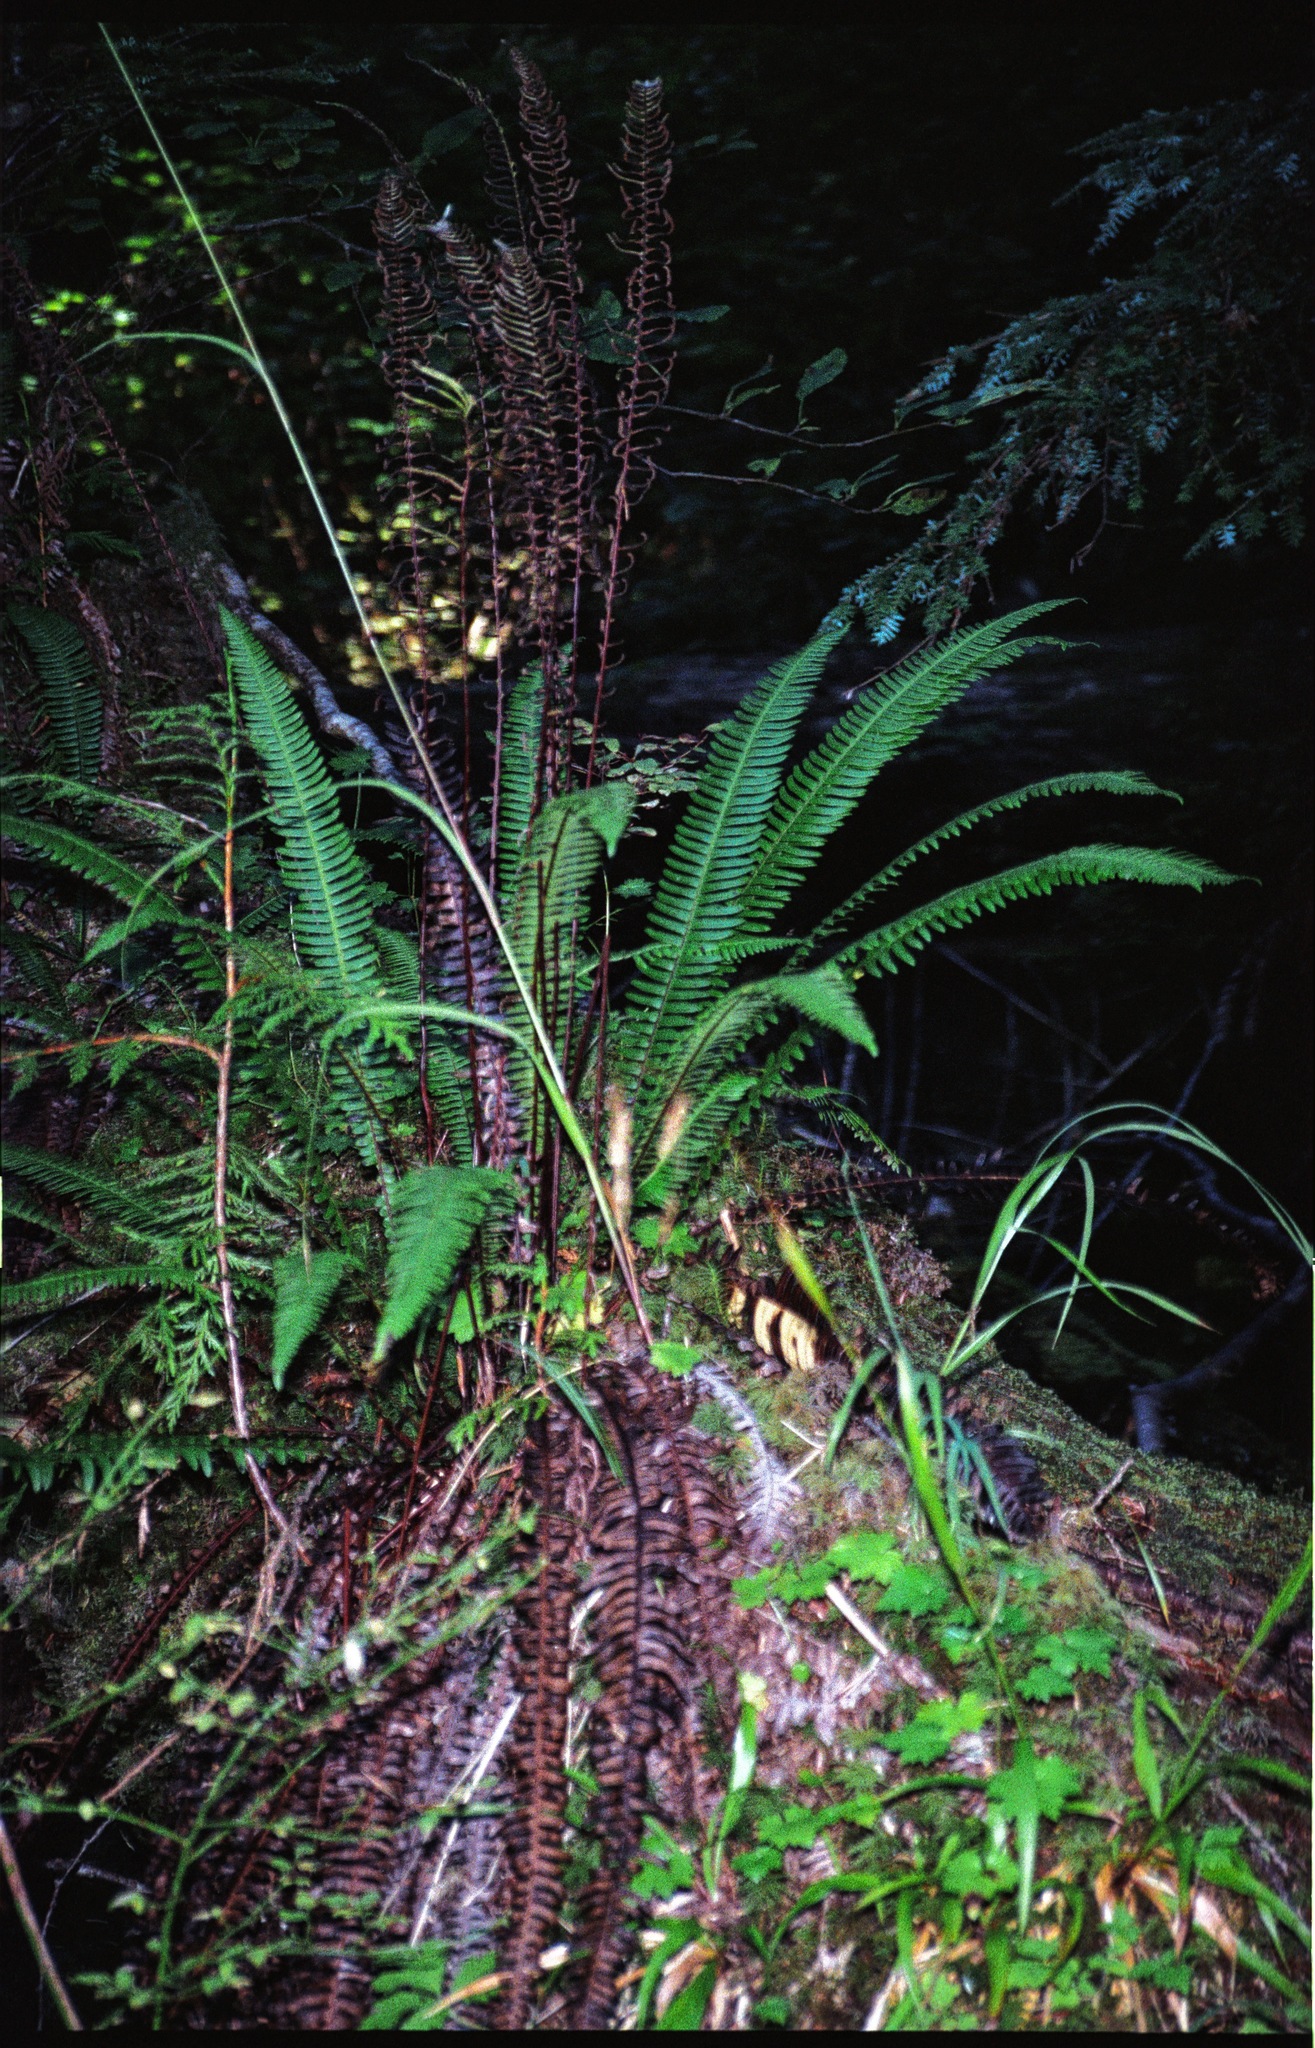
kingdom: Plantae
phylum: Tracheophyta
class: Polypodiopsida
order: Polypodiales
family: Blechnaceae
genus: Struthiopteris
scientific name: Struthiopteris spicant
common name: Deer fern
